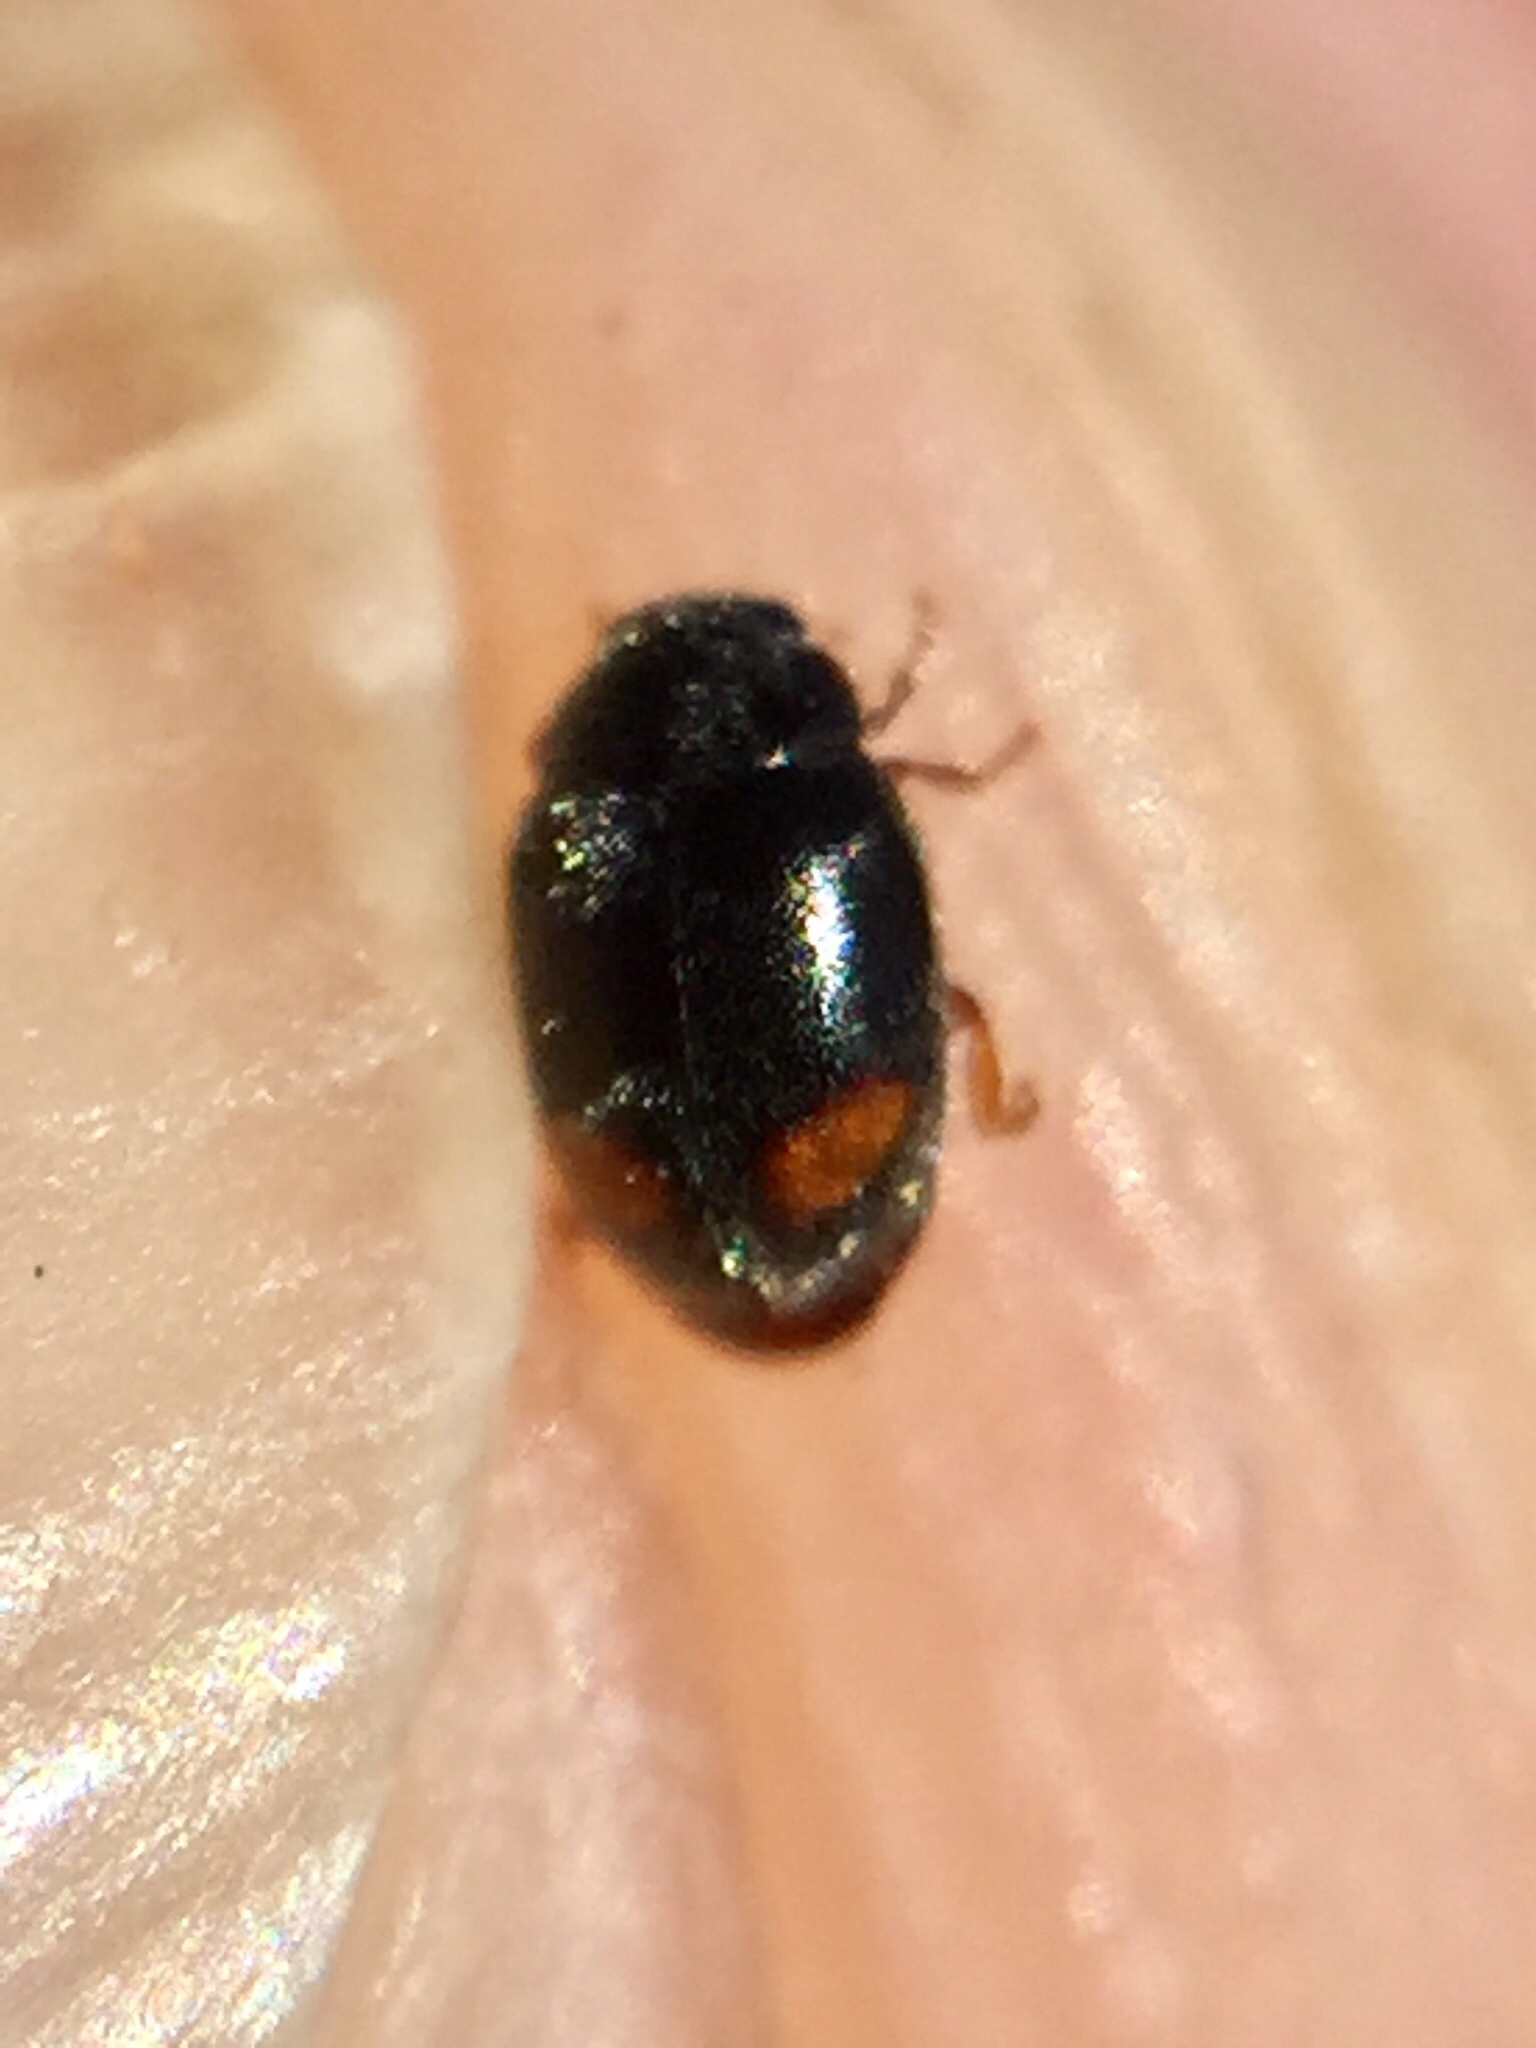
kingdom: Animalia
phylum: Arthropoda
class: Insecta
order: Coleoptera
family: Coccinellidae
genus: Nephus
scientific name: Nephus binaevatus
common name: Ladybird beetle
